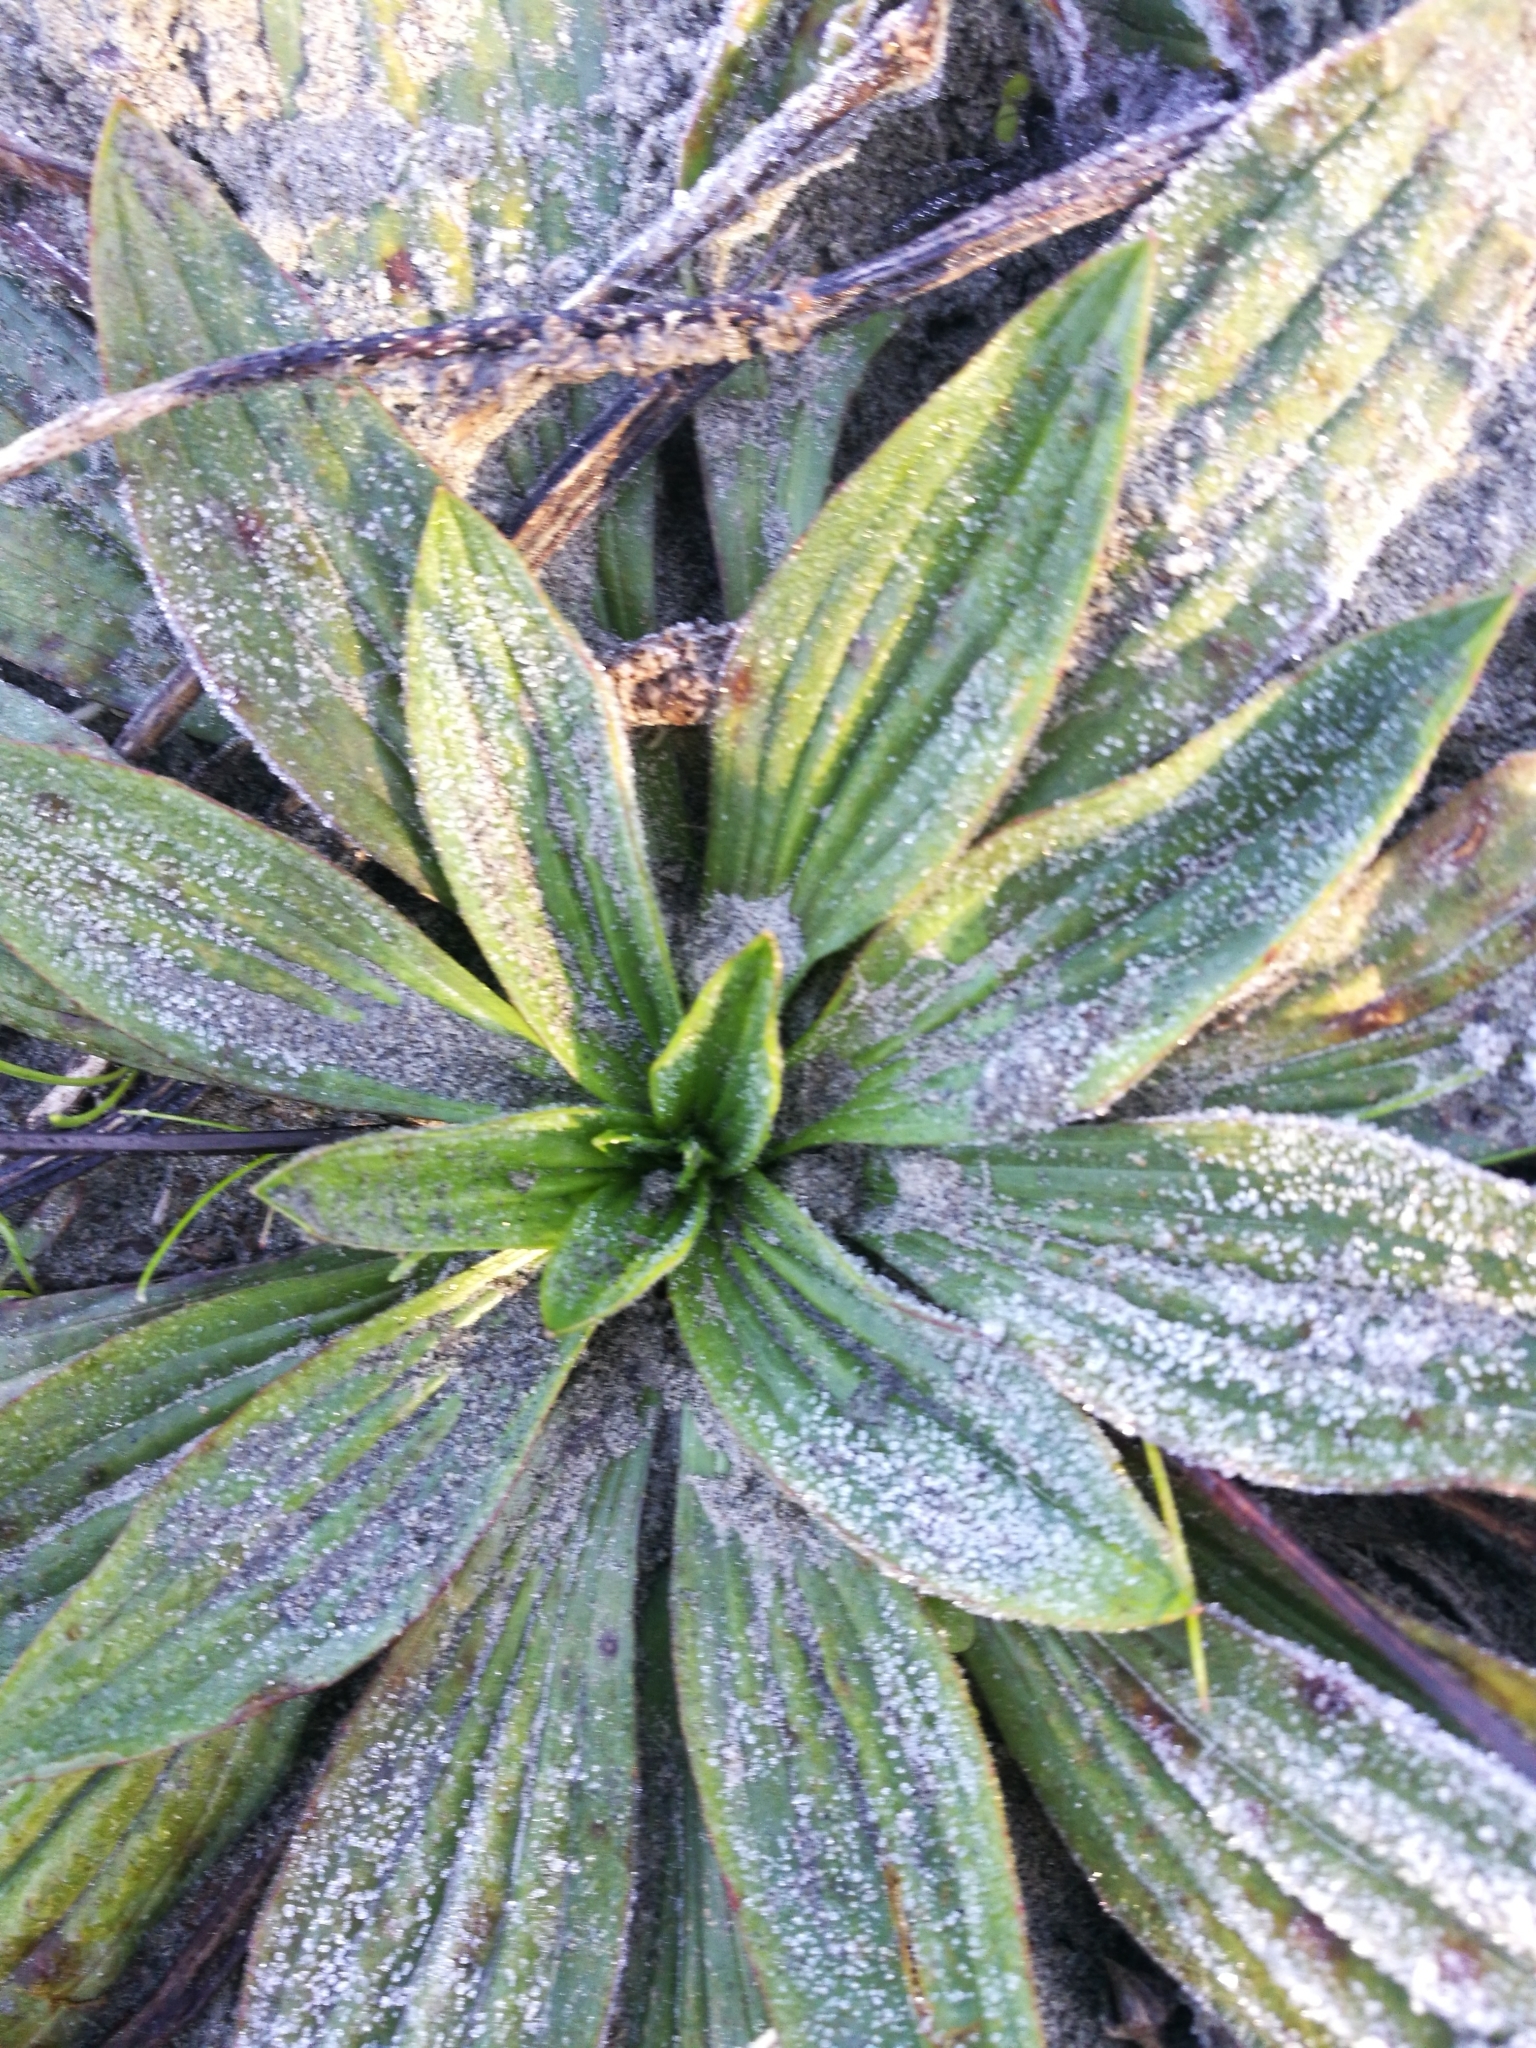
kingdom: Plantae
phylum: Tracheophyta
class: Magnoliopsida
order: Lamiales
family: Plantaginaceae
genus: Plantago
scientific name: Plantago lanceolata
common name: Ribwort plantain
